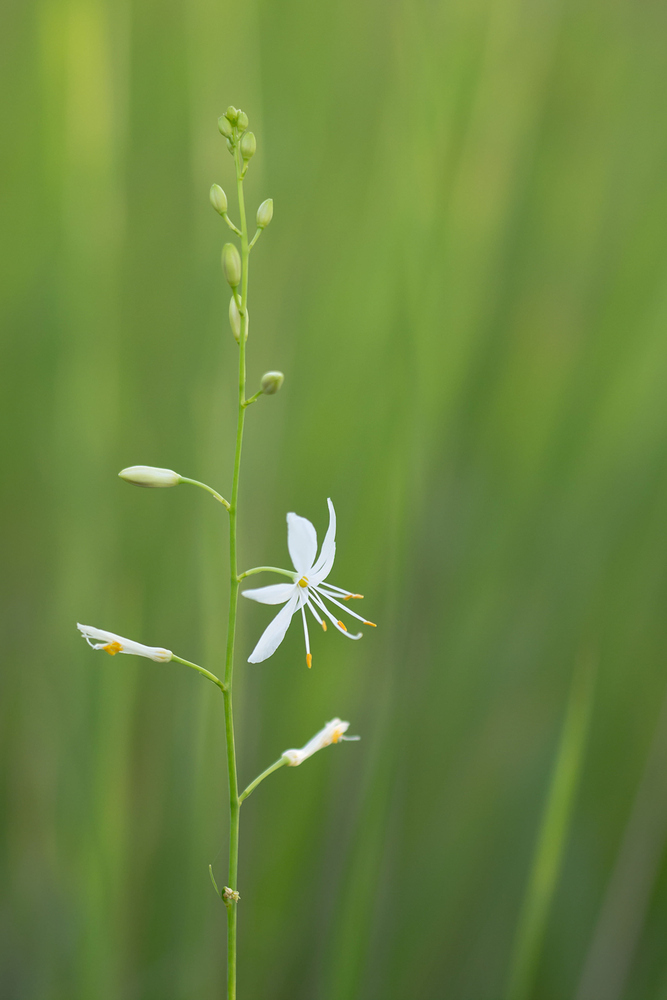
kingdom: Plantae
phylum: Tracheophyta
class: Liliopsida
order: Asparagales
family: Asparagaceae
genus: Anthericum
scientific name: Anthericum ramosum
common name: Branched st. bernard's-lily
